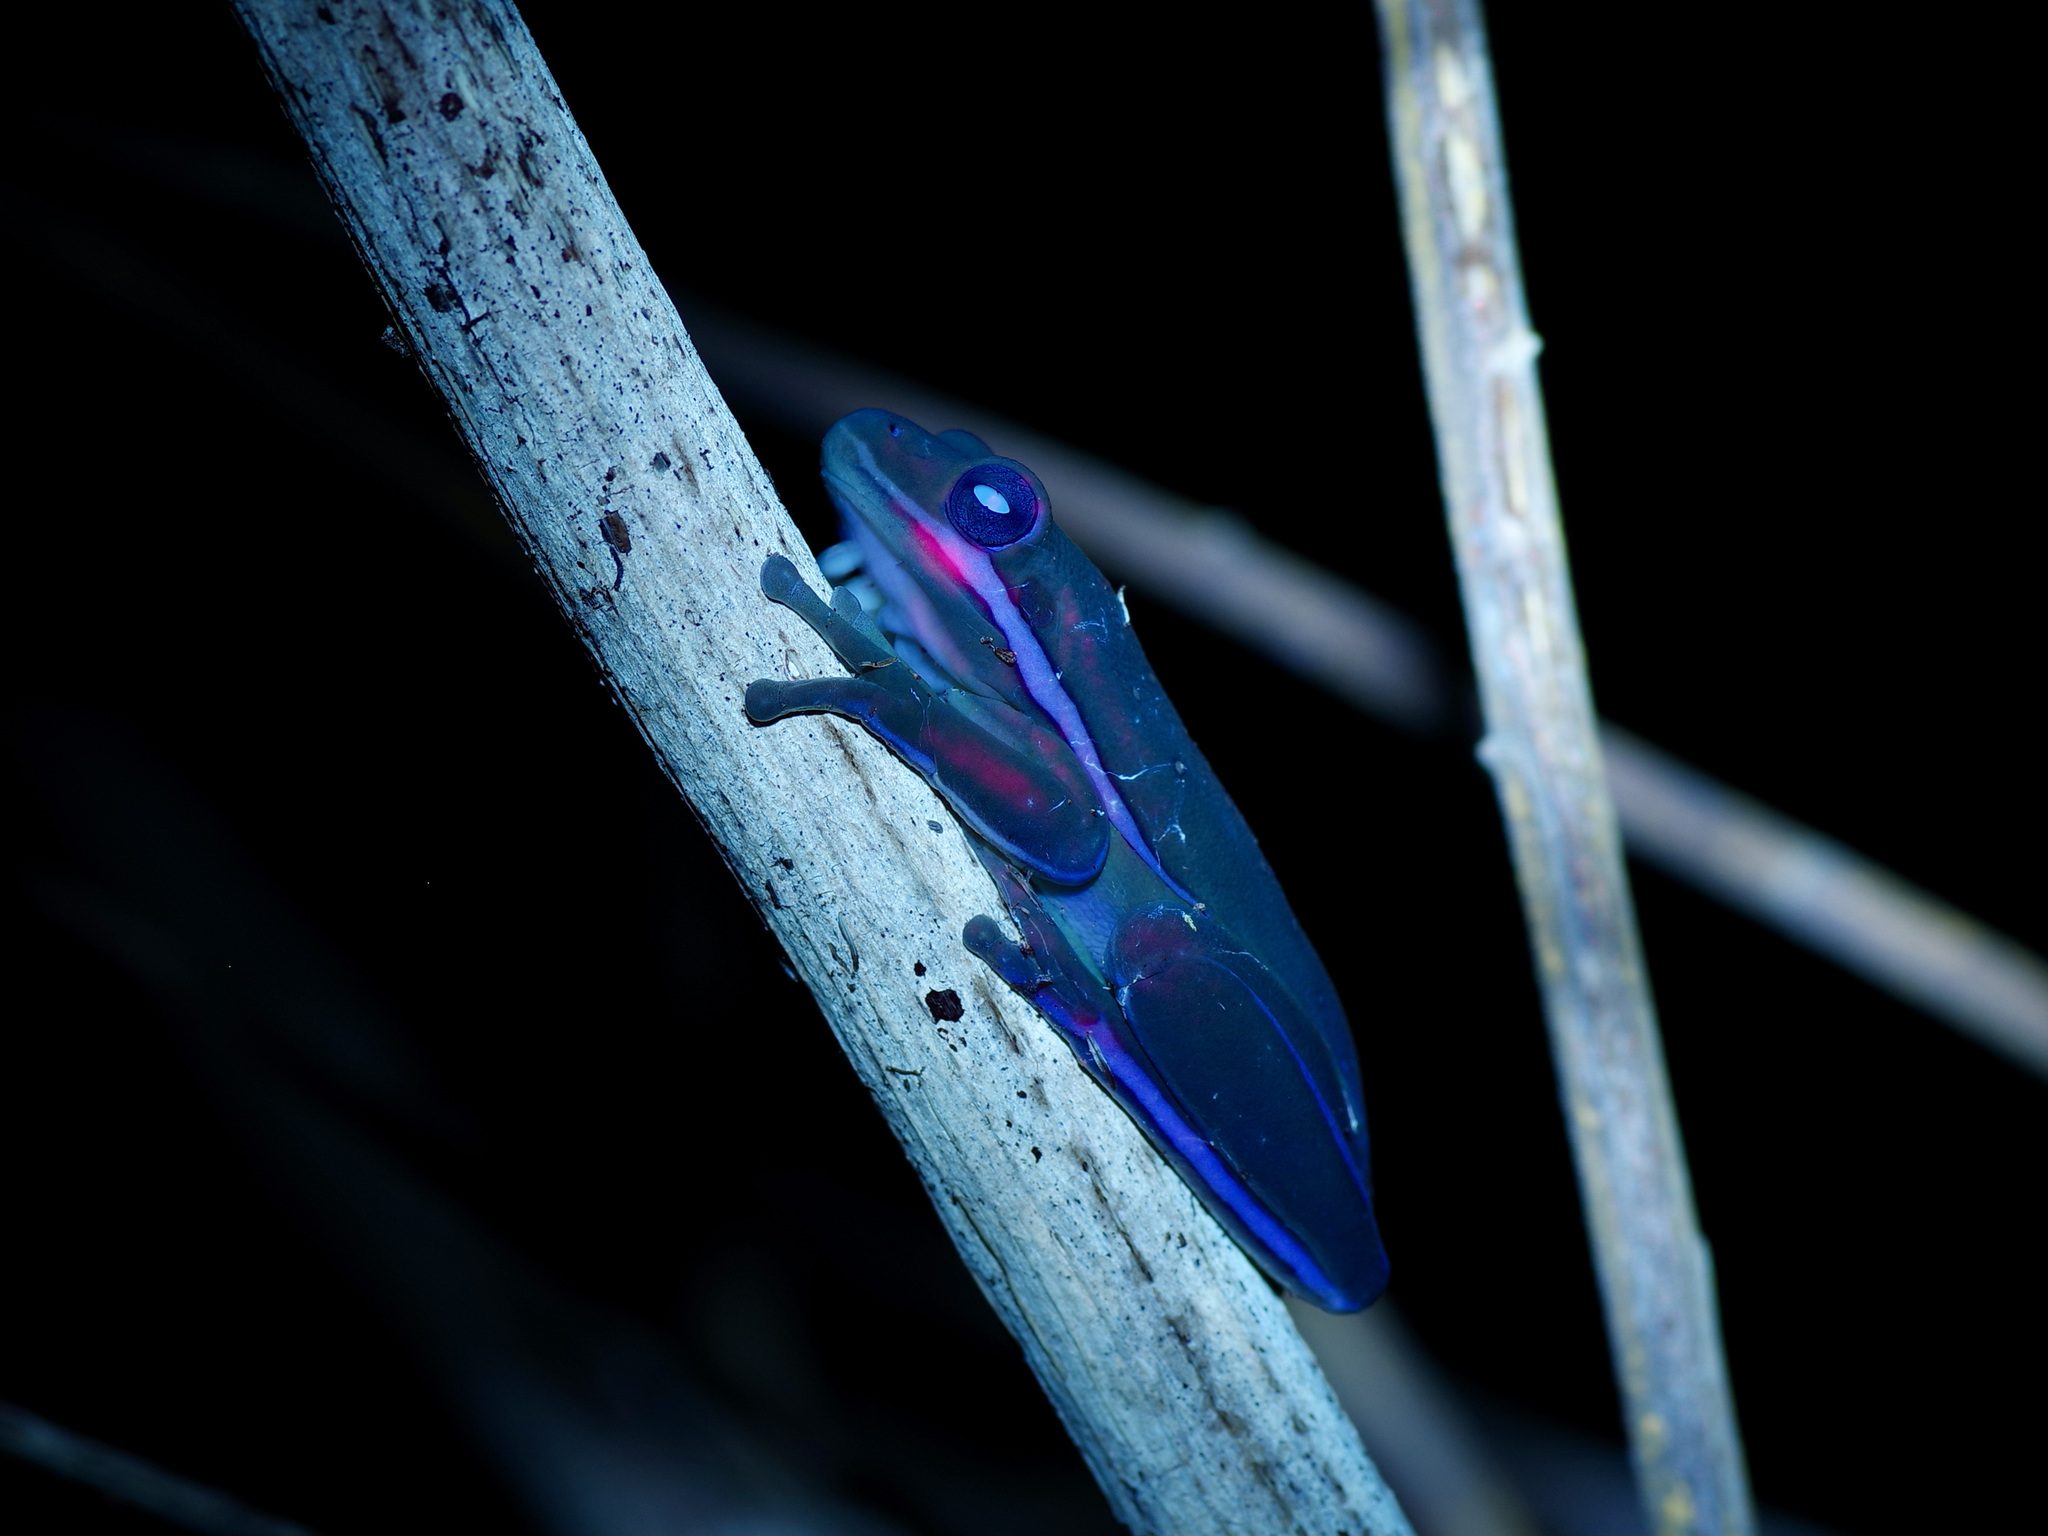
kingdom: Animalia
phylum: Chordata
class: Amphibia
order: Anura
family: Hylidae
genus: Dryophytes
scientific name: Dryophytes cinereus
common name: Green treefrog
